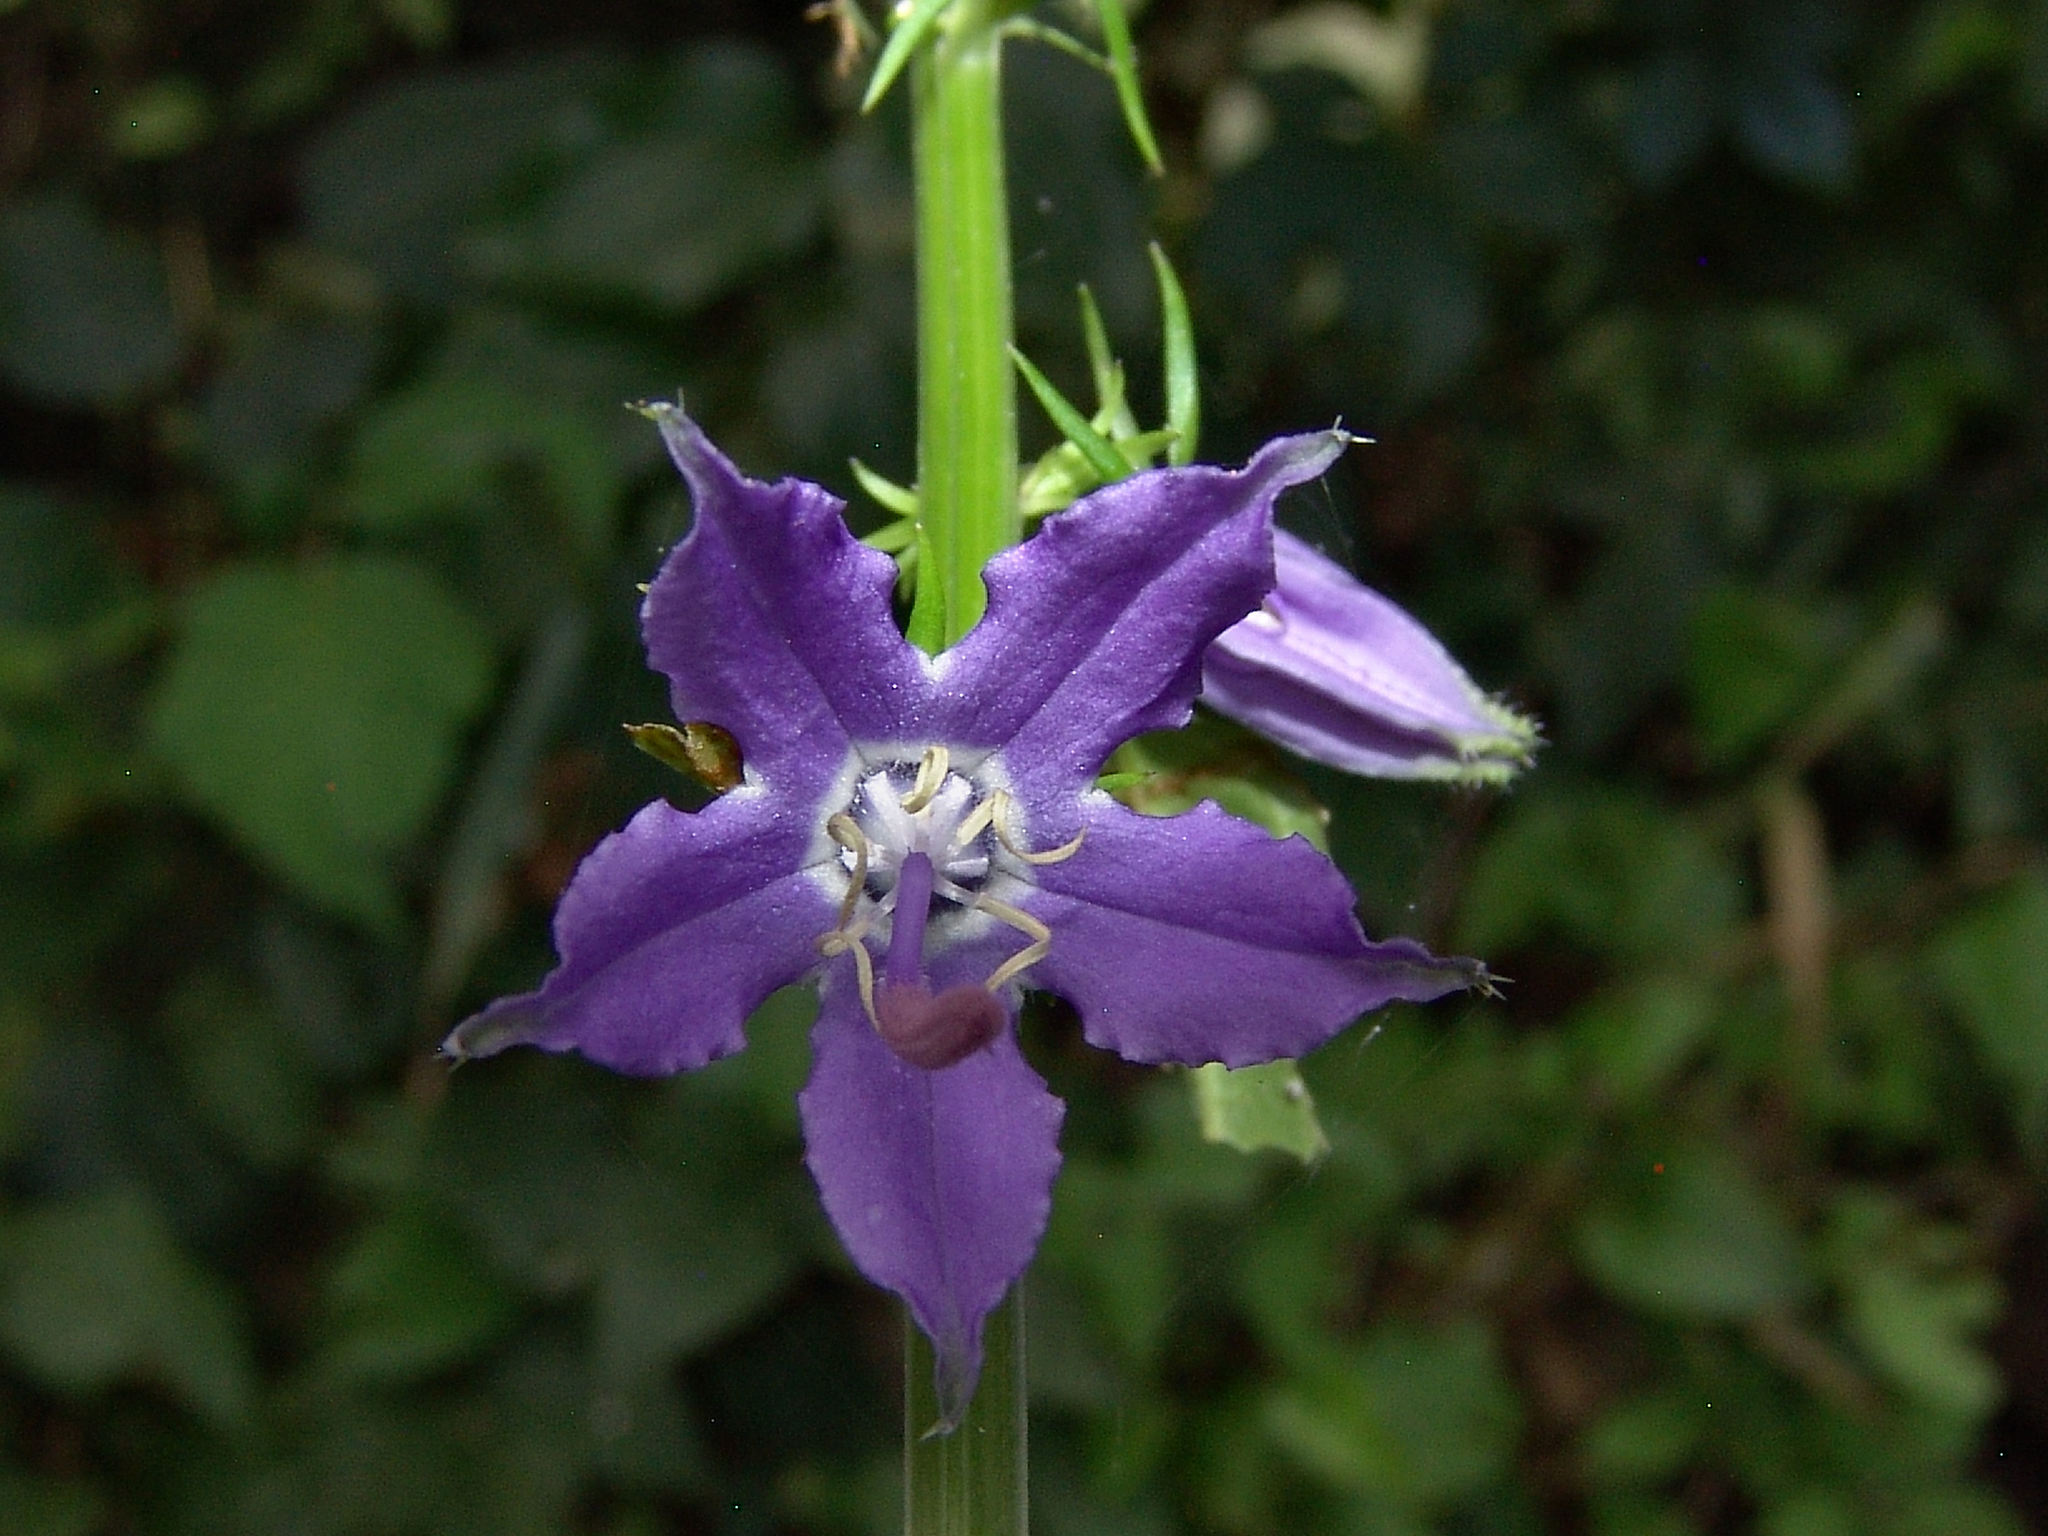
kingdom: Plantae
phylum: Tracheophyta
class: Magnoliopsida
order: Asterales
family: Campanulaceae
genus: Campanulastrum
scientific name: Campanulastrum americanum
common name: American bellflower
